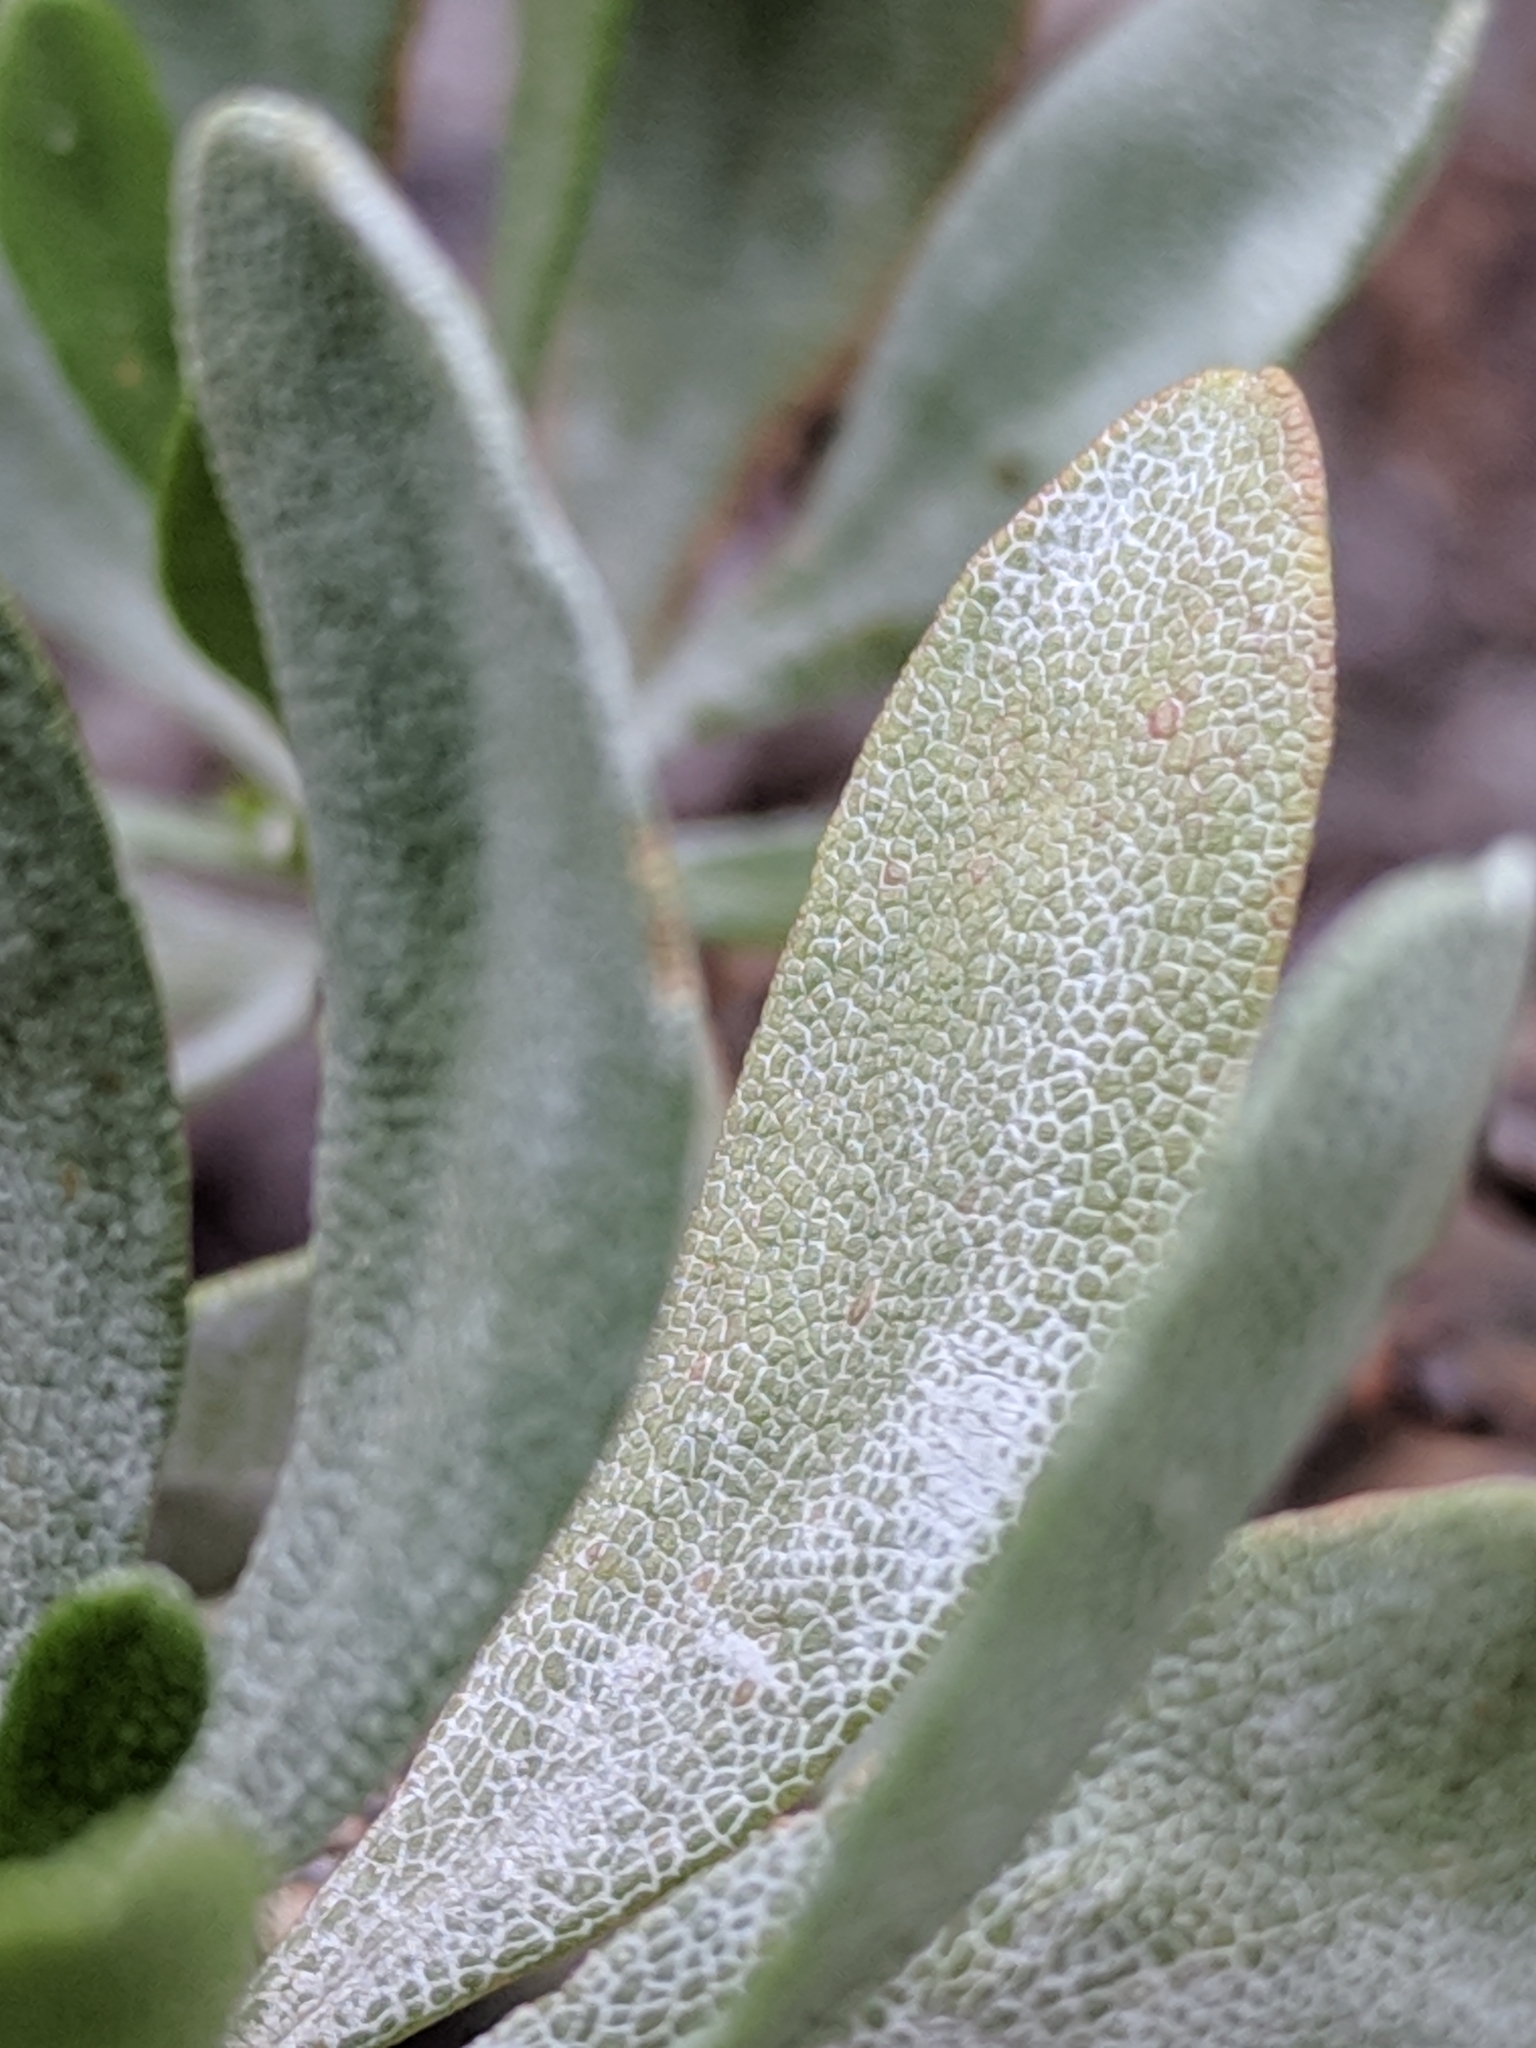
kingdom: Plantae
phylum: Tracheophyta
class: Magnoliopsida
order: Asterales
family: Asteraceae
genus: Chrysoma
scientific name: Chrysoma pauciflosculosa
